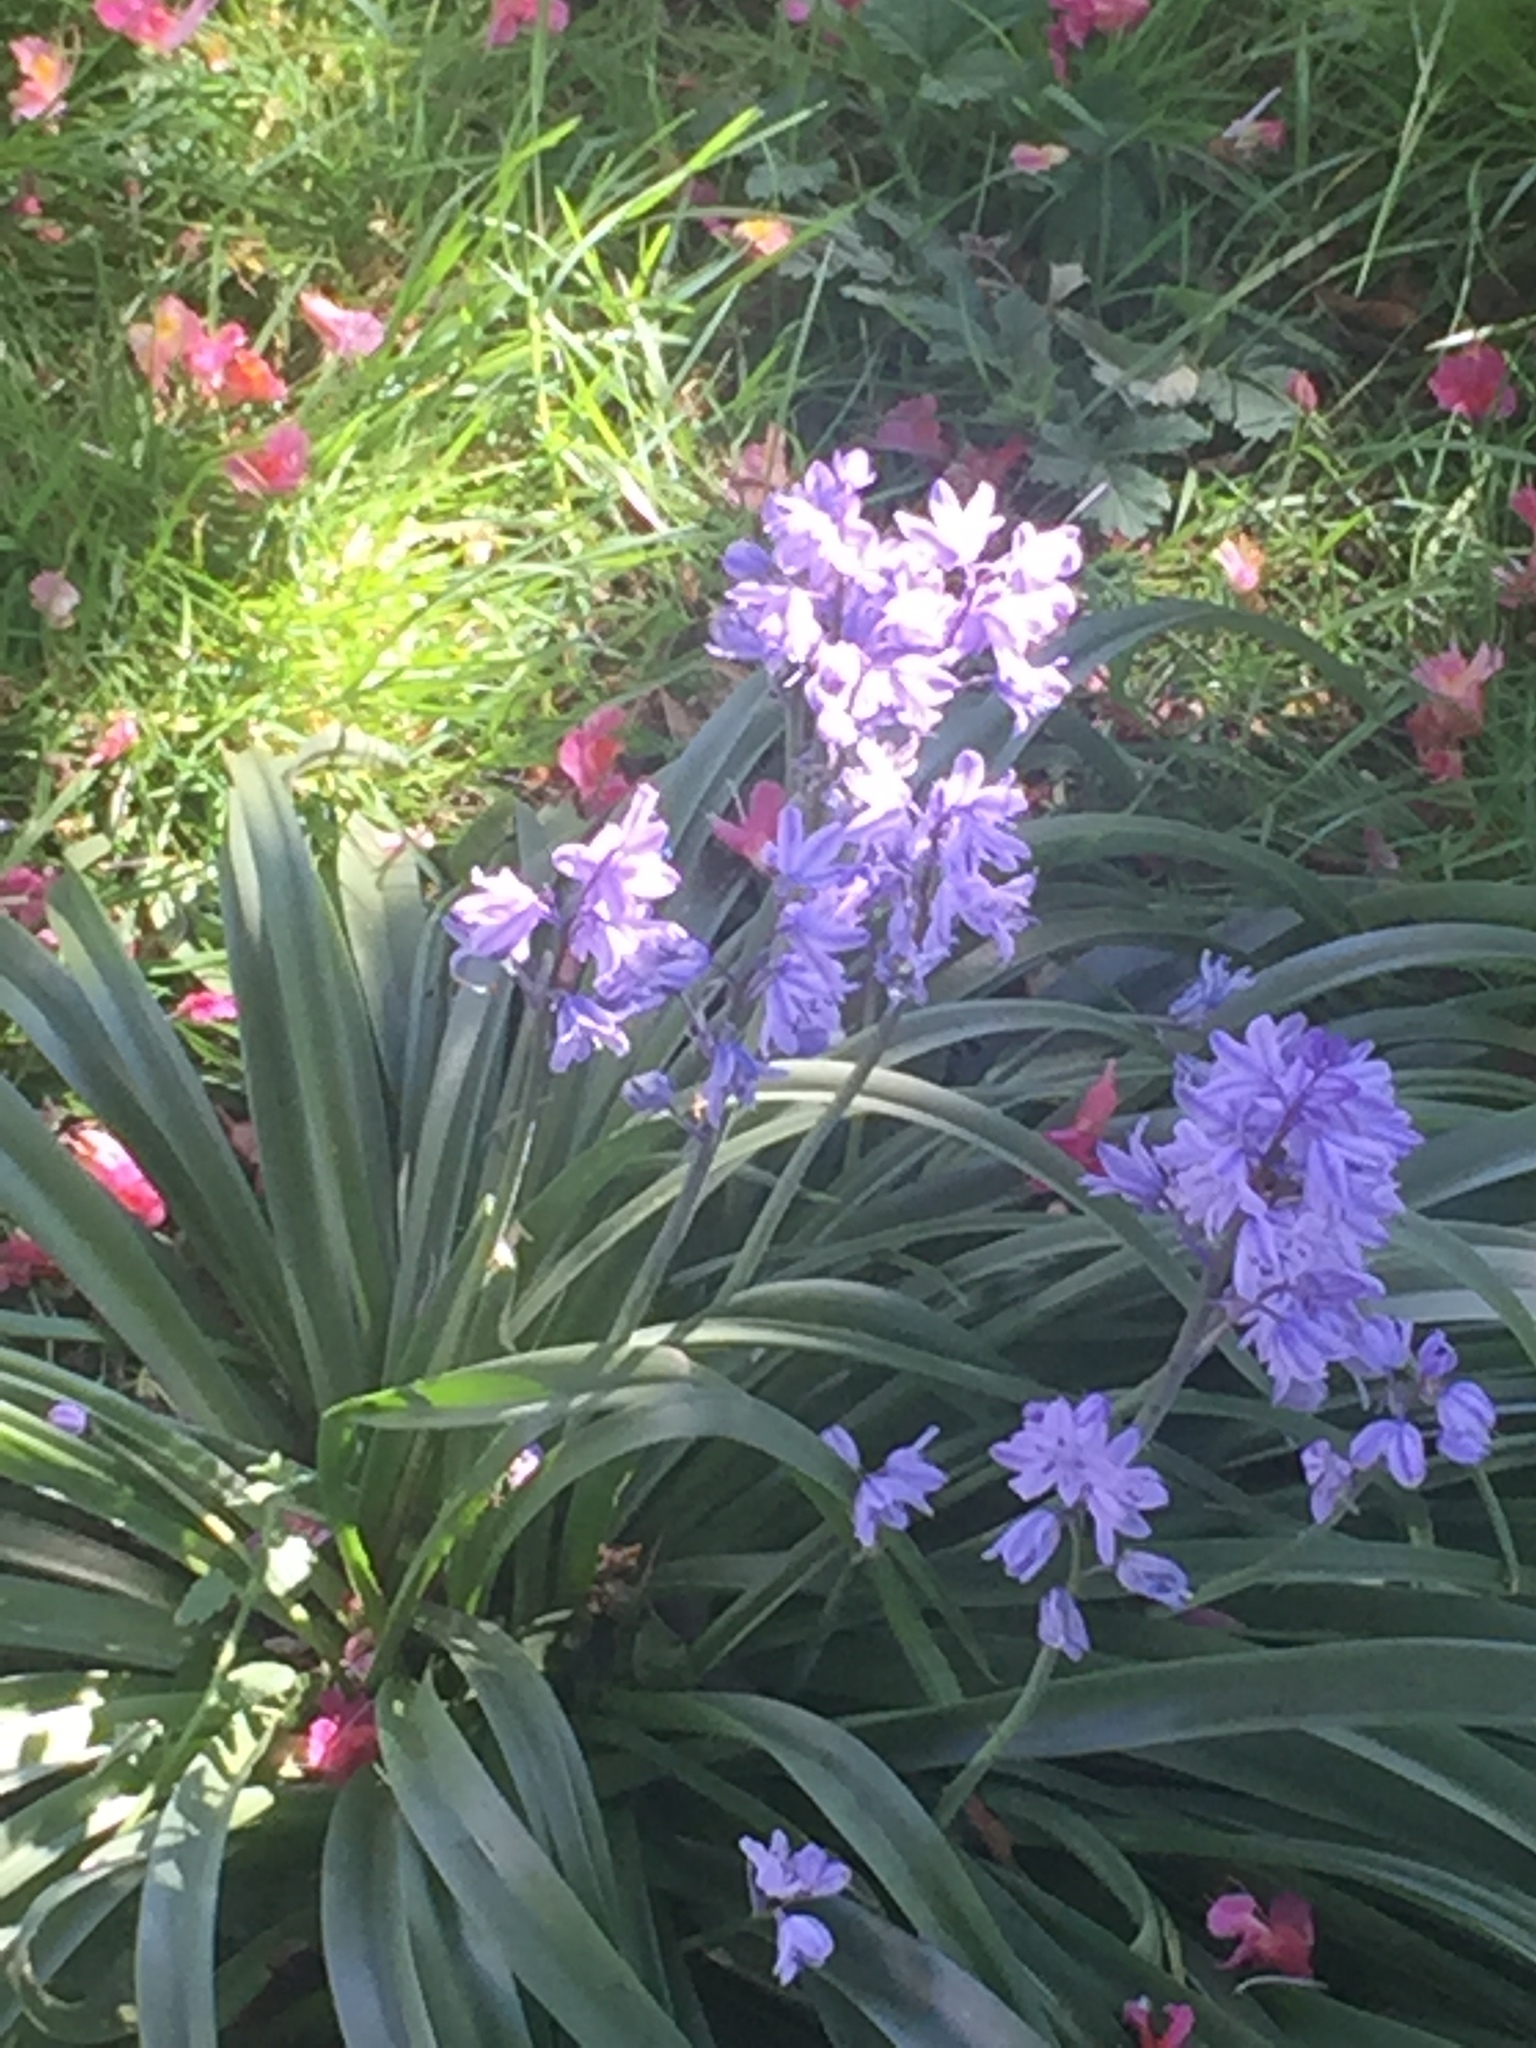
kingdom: Plantae
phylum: Tracheophyta
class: Liliopsida
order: Asparagales
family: Asparagaceae
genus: Hyacinthoides
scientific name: Hyacinthoides hispanica
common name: Spanish bluebell
